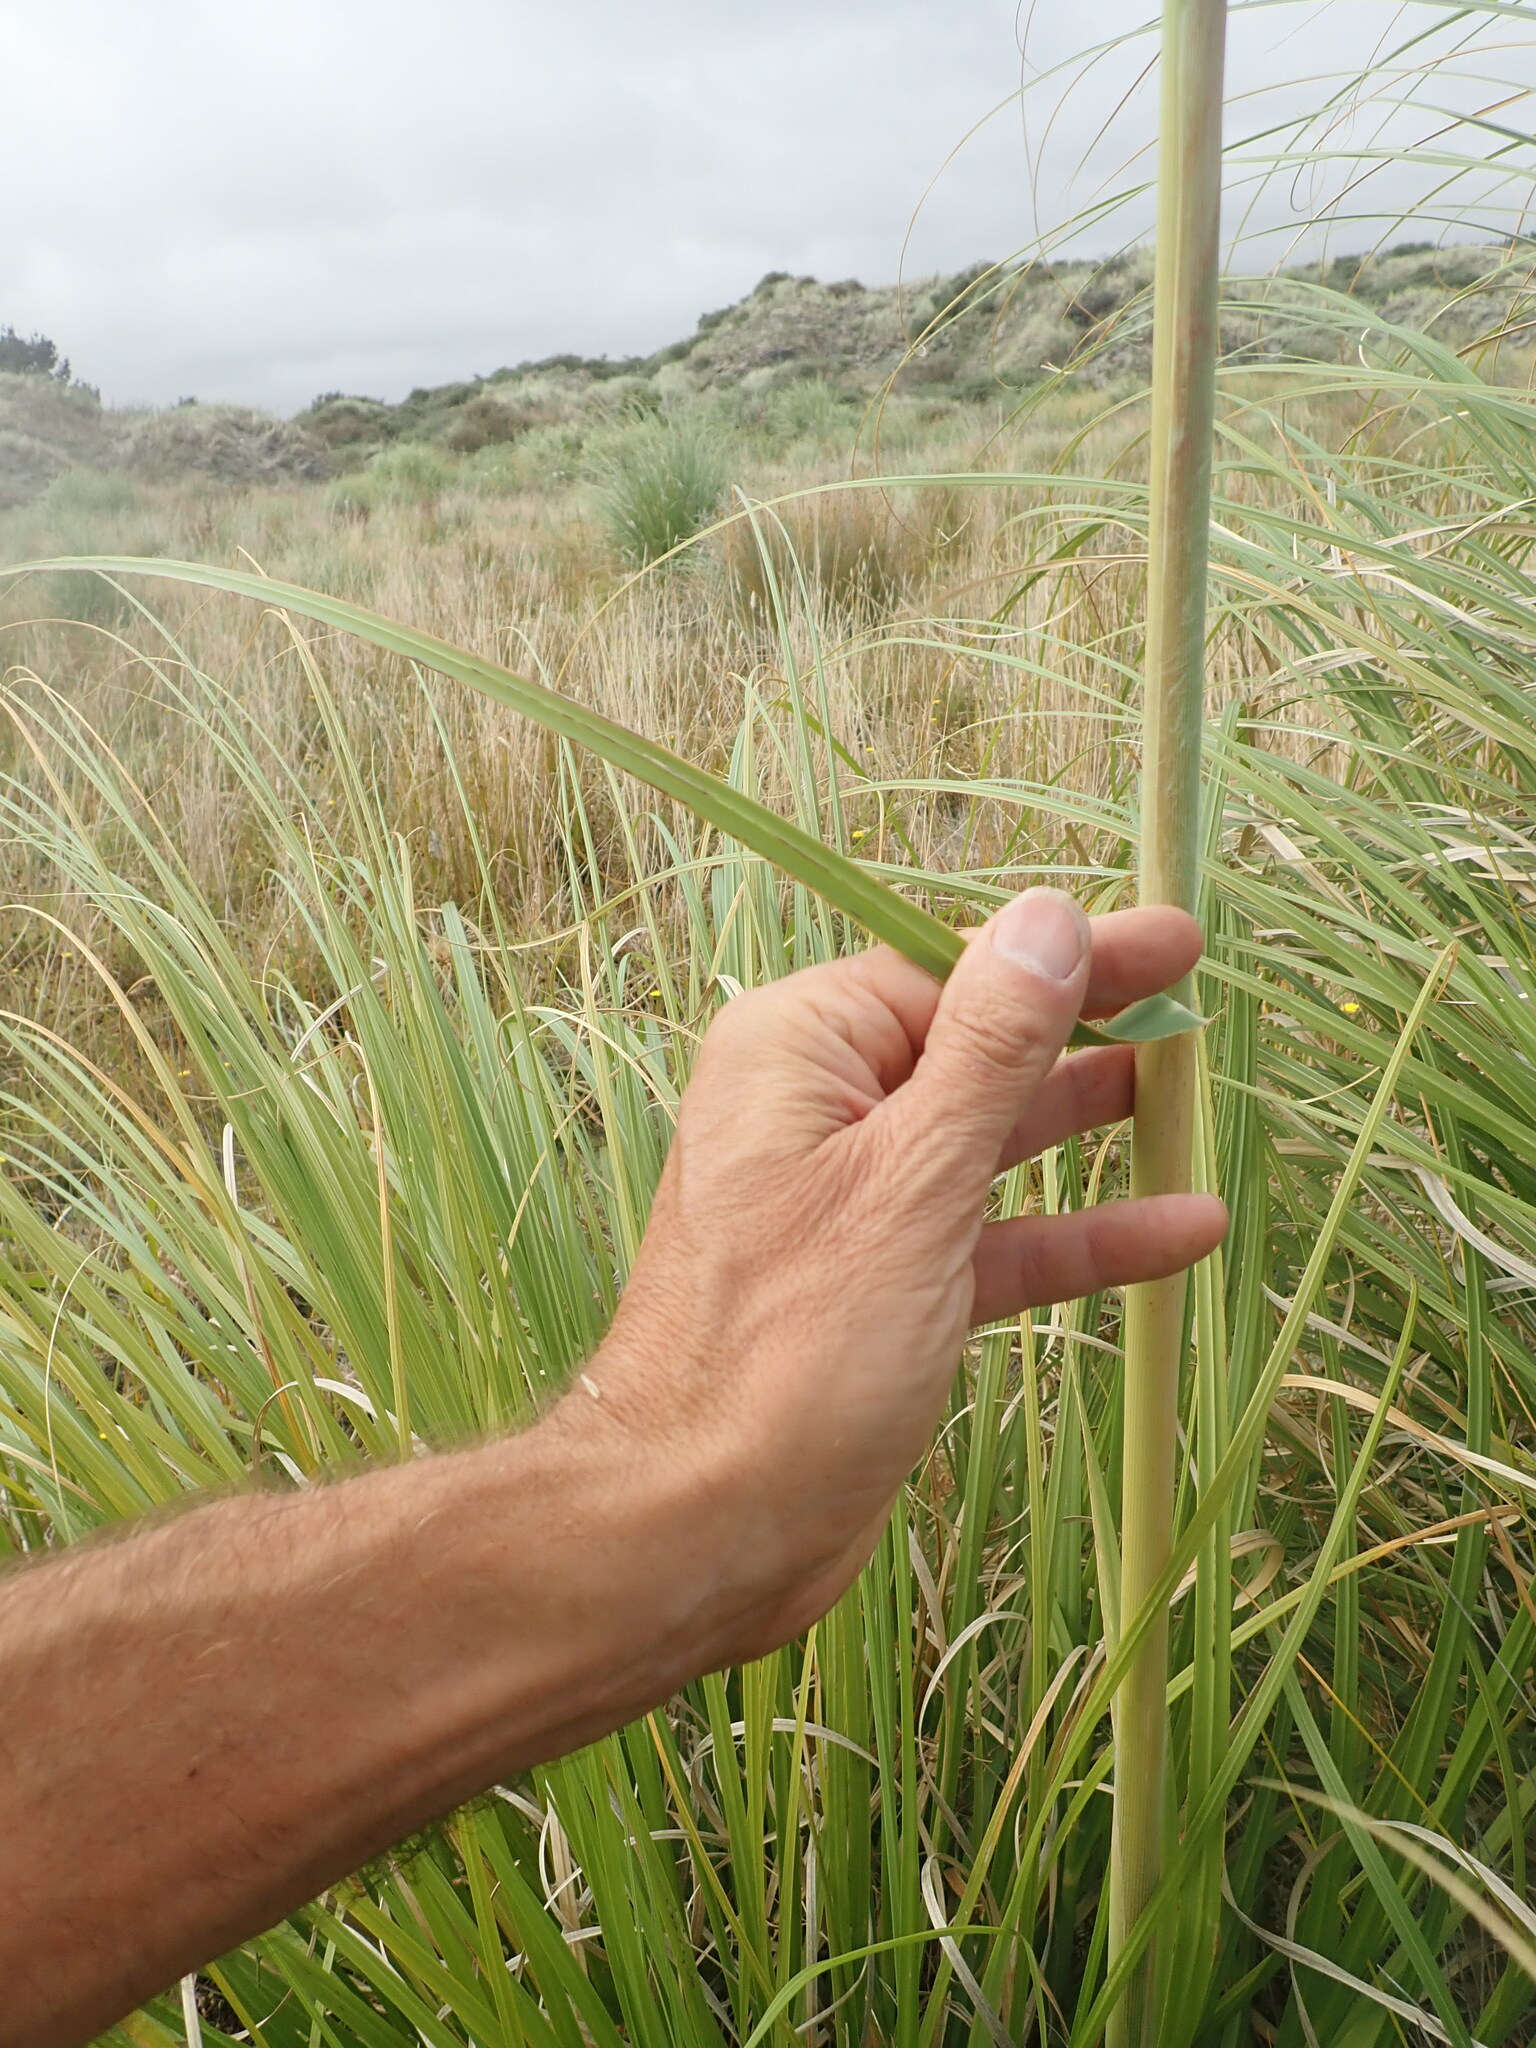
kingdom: Plantae
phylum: Tracheophyta
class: Liliopsida
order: Poales
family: Poaceae
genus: Cortaderia
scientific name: Cortaderia jubata
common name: Purple pampas grass
